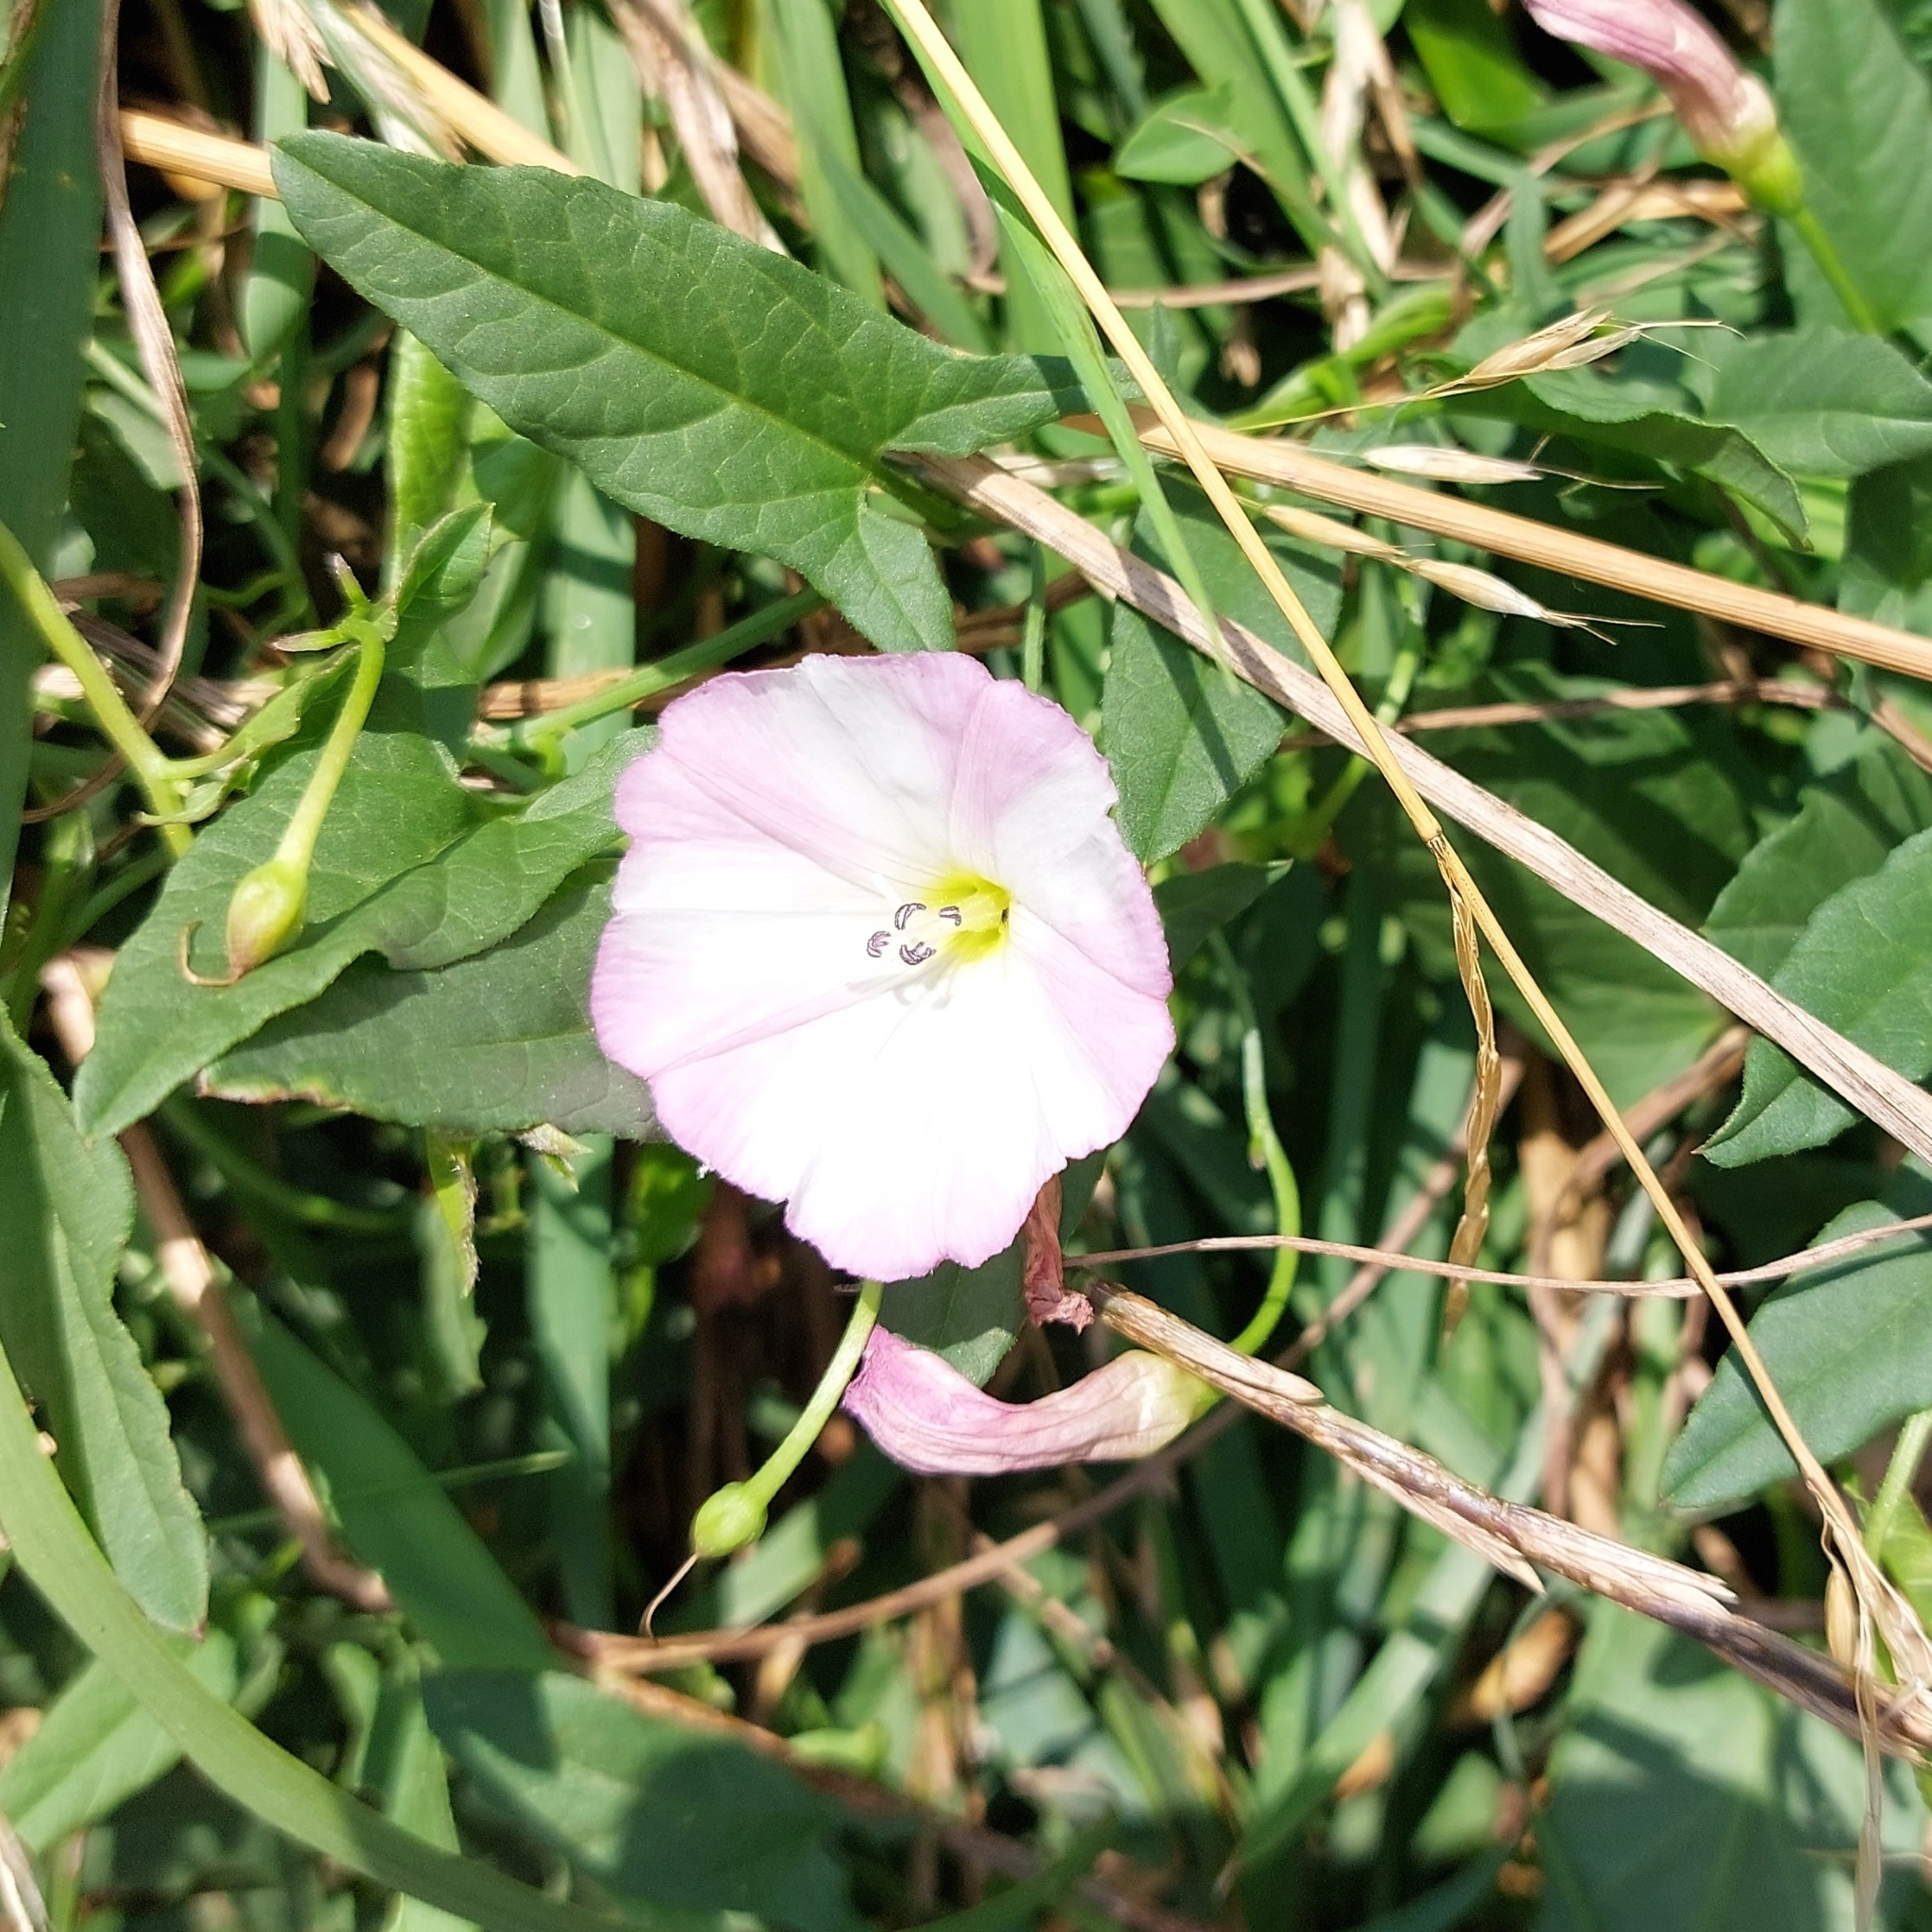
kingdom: Plantae
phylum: Tracheophyta
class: Magnoliopsida
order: Solanales
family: Convolvulaceae
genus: Convolvulus
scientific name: Convolvulus arvensis
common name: Field bindweed
